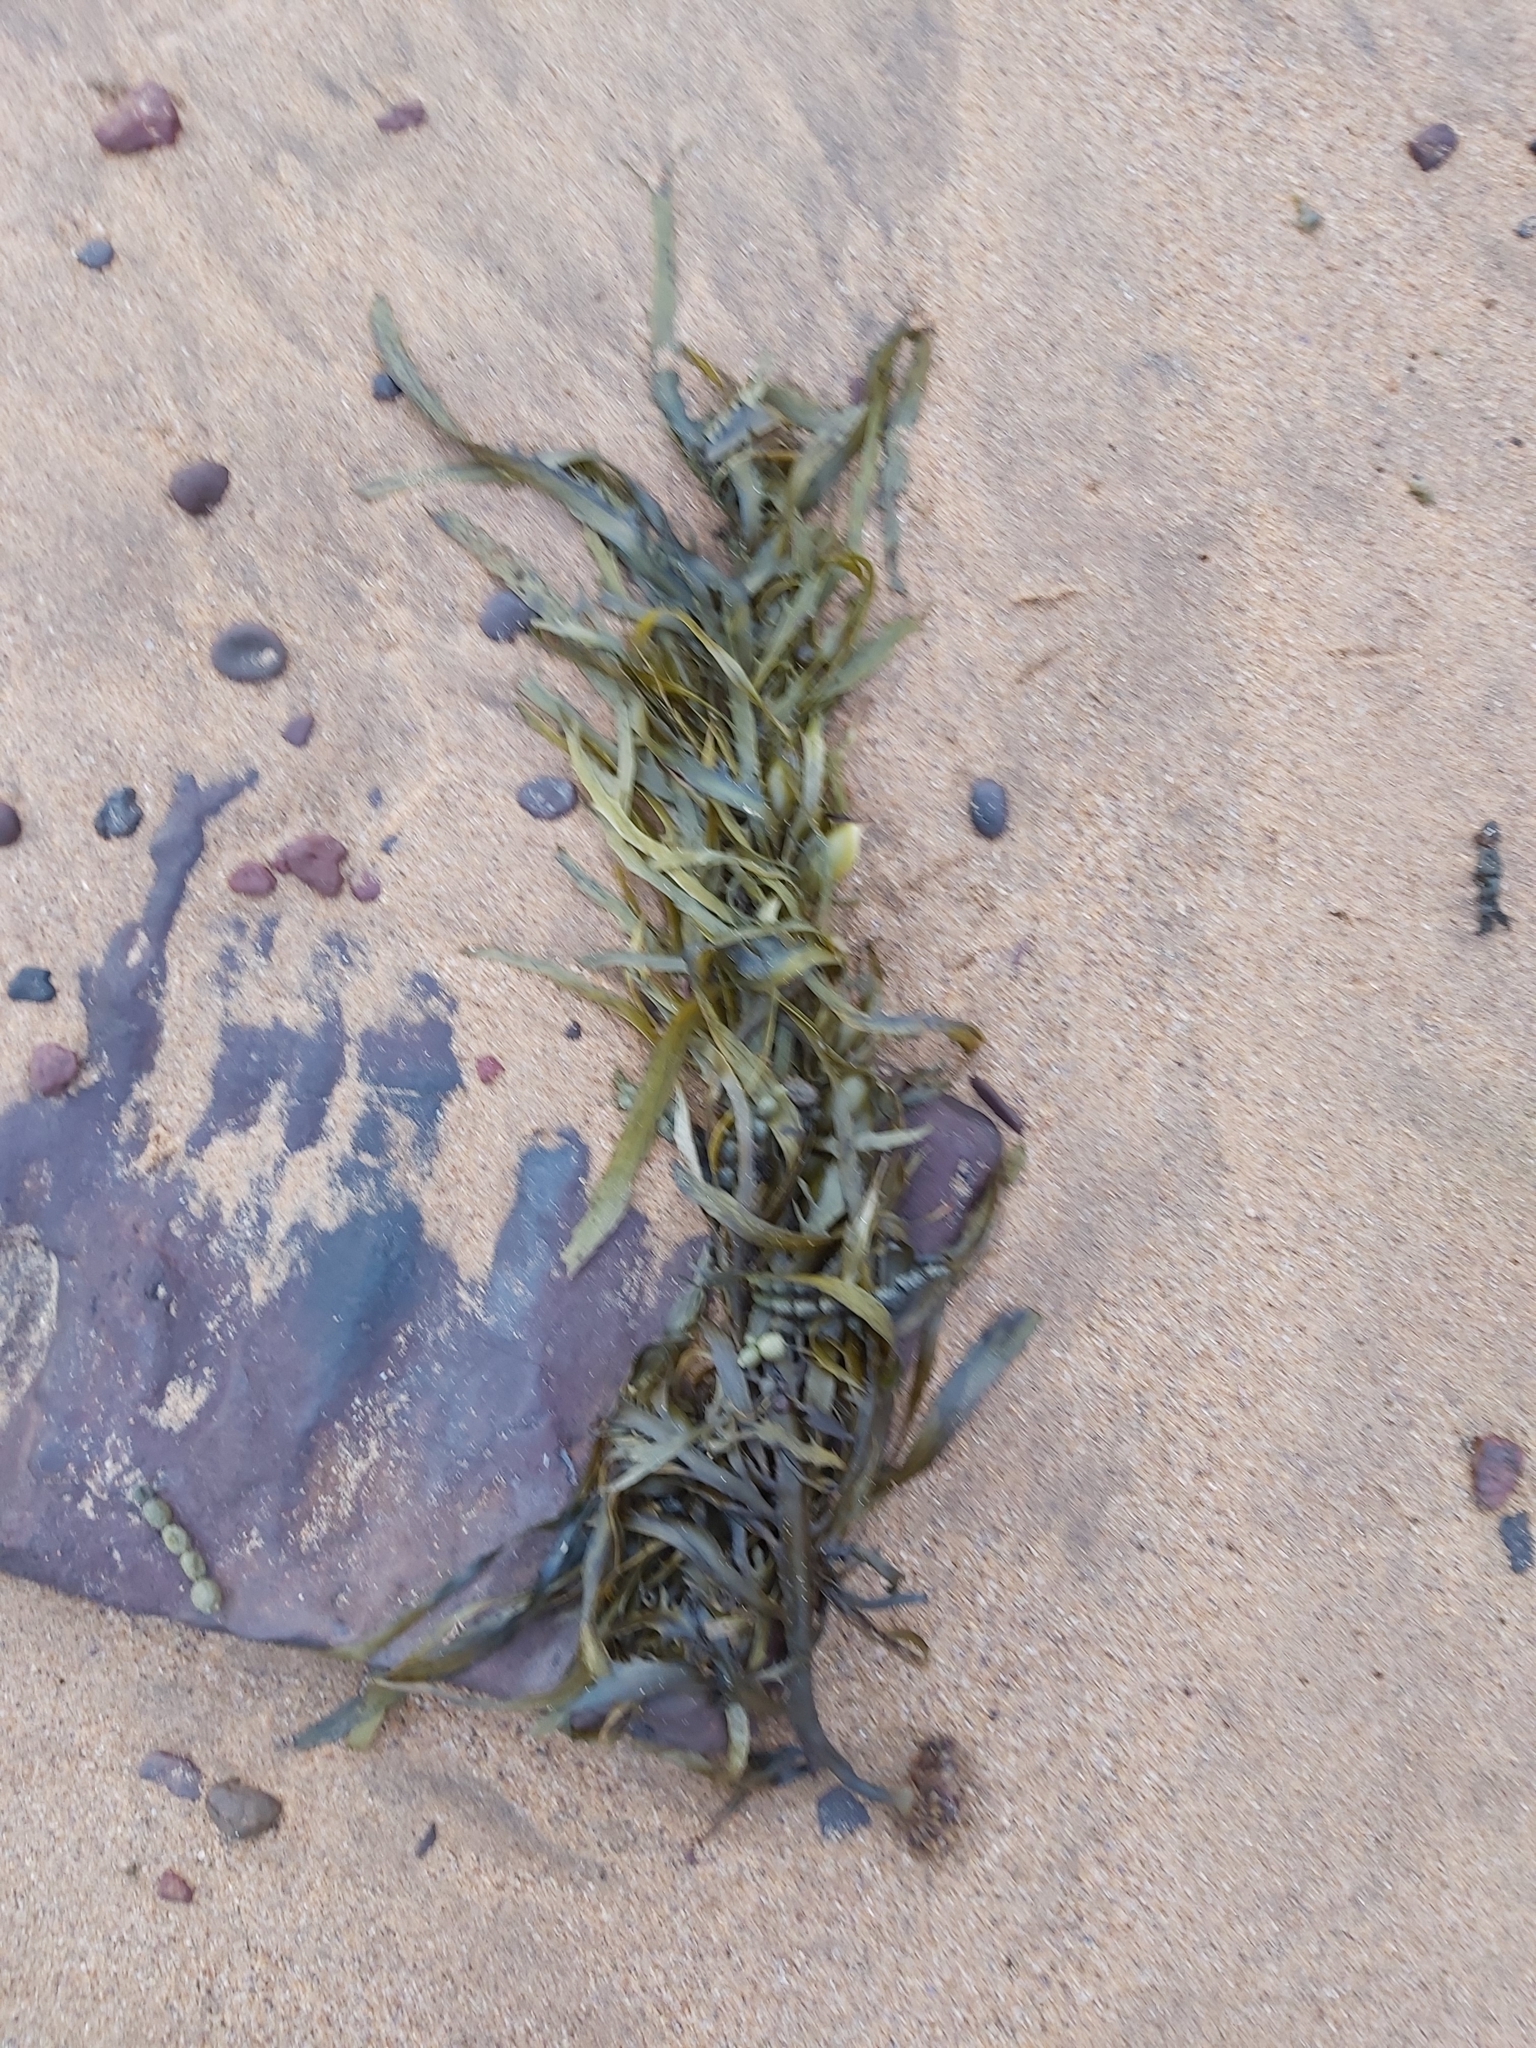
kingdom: Chromista
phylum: Ochrophyta
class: Phaeophyceae
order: Fucales
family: Seirococcaceae
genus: Phyllospora
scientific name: Phyllospora
